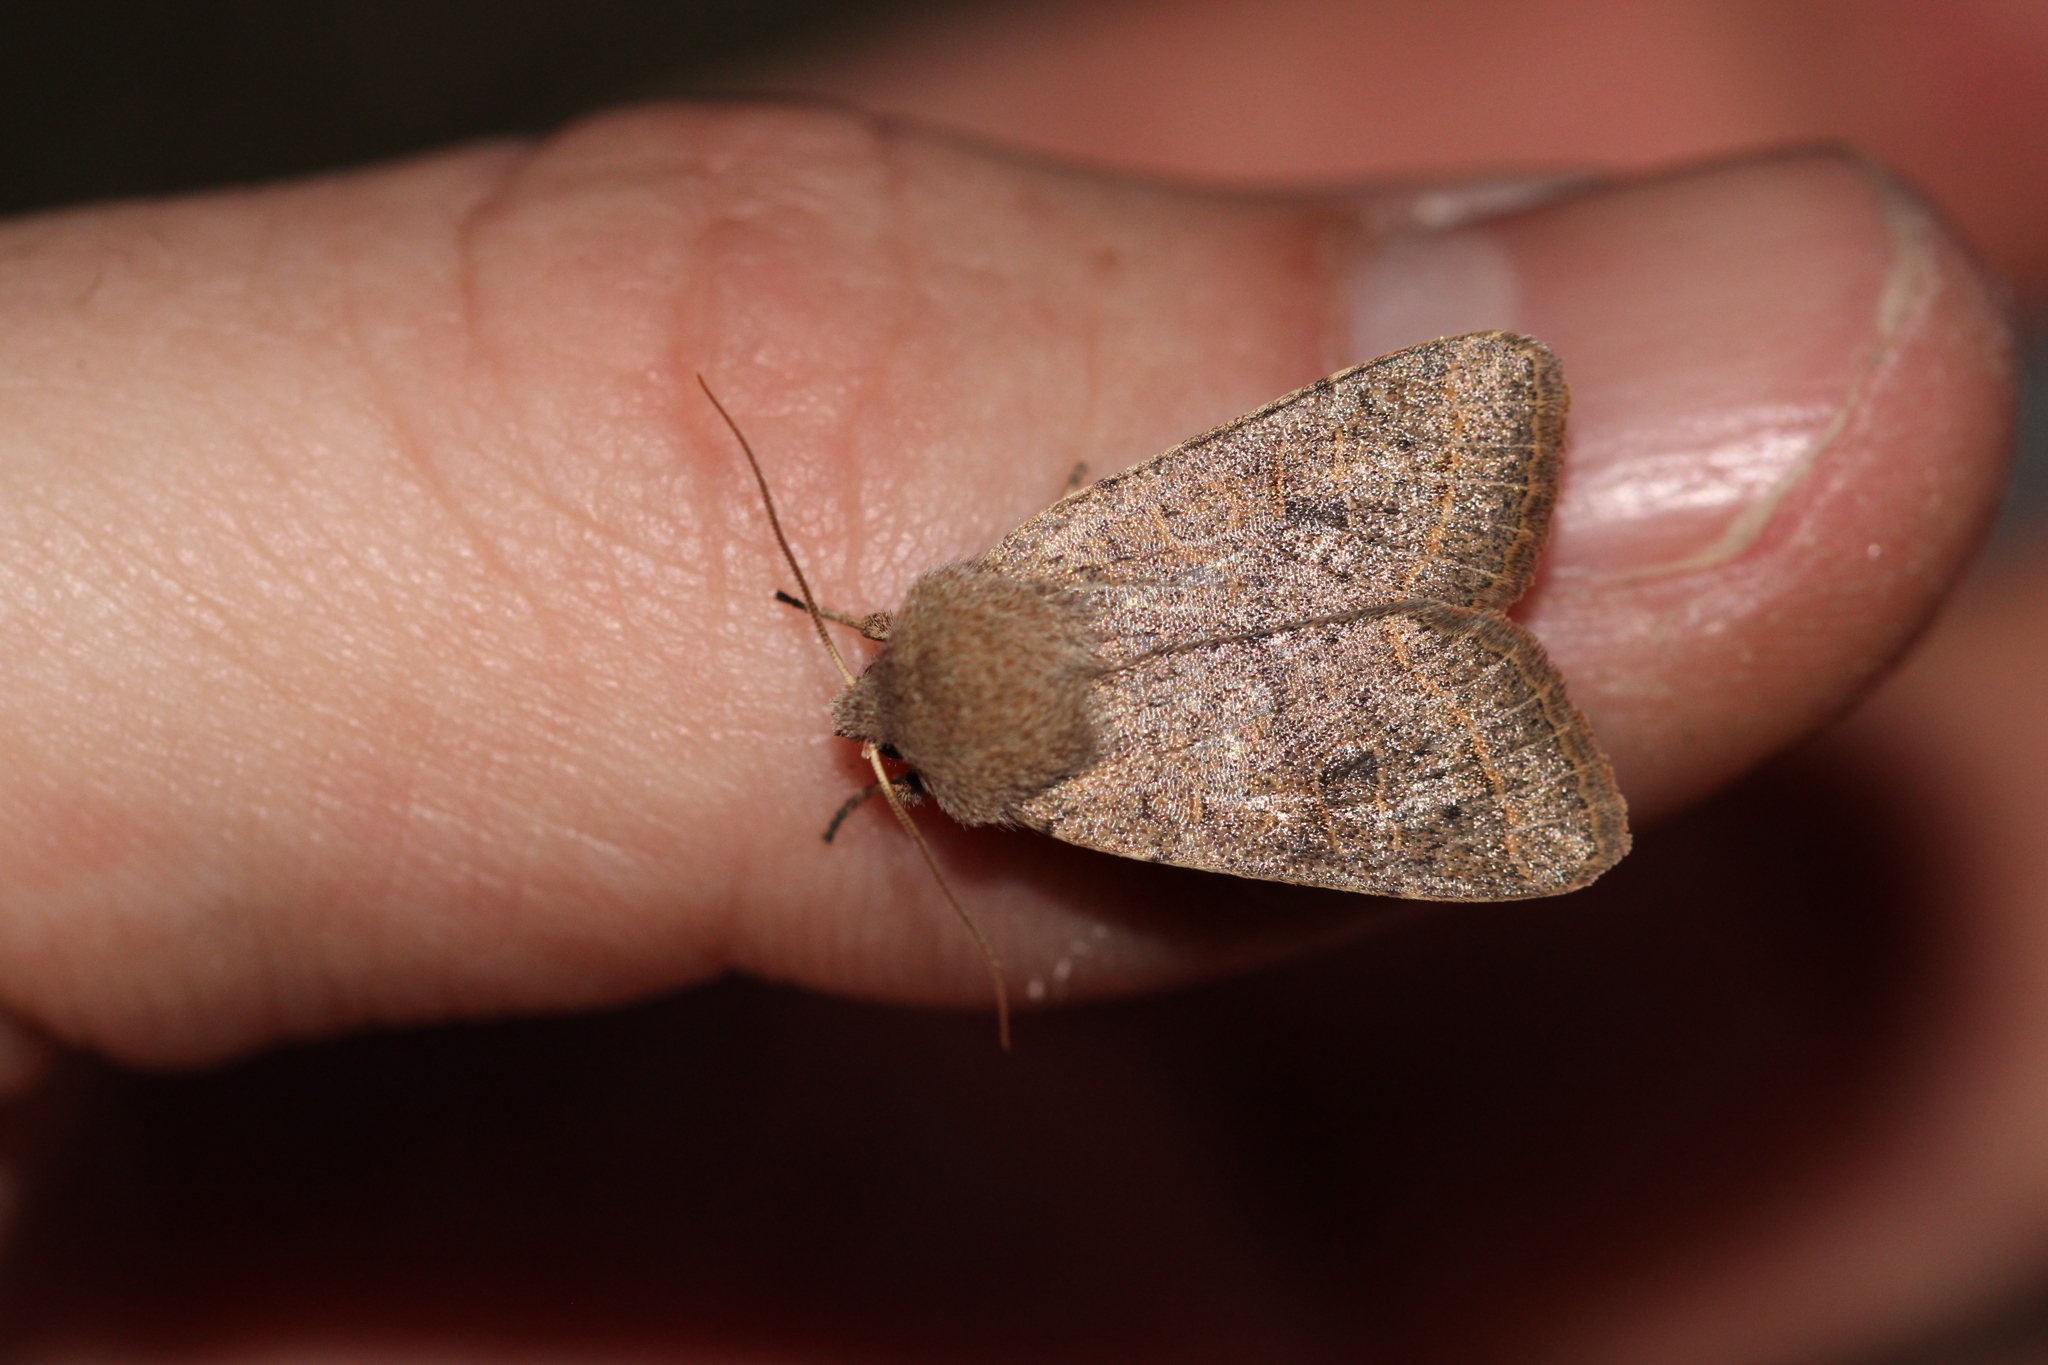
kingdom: Animalia
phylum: Arthropoda
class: Insecta
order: Lepidoptera
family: Noctuidae
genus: Orthosia
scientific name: Orthosia cerasi
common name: Common quaker
